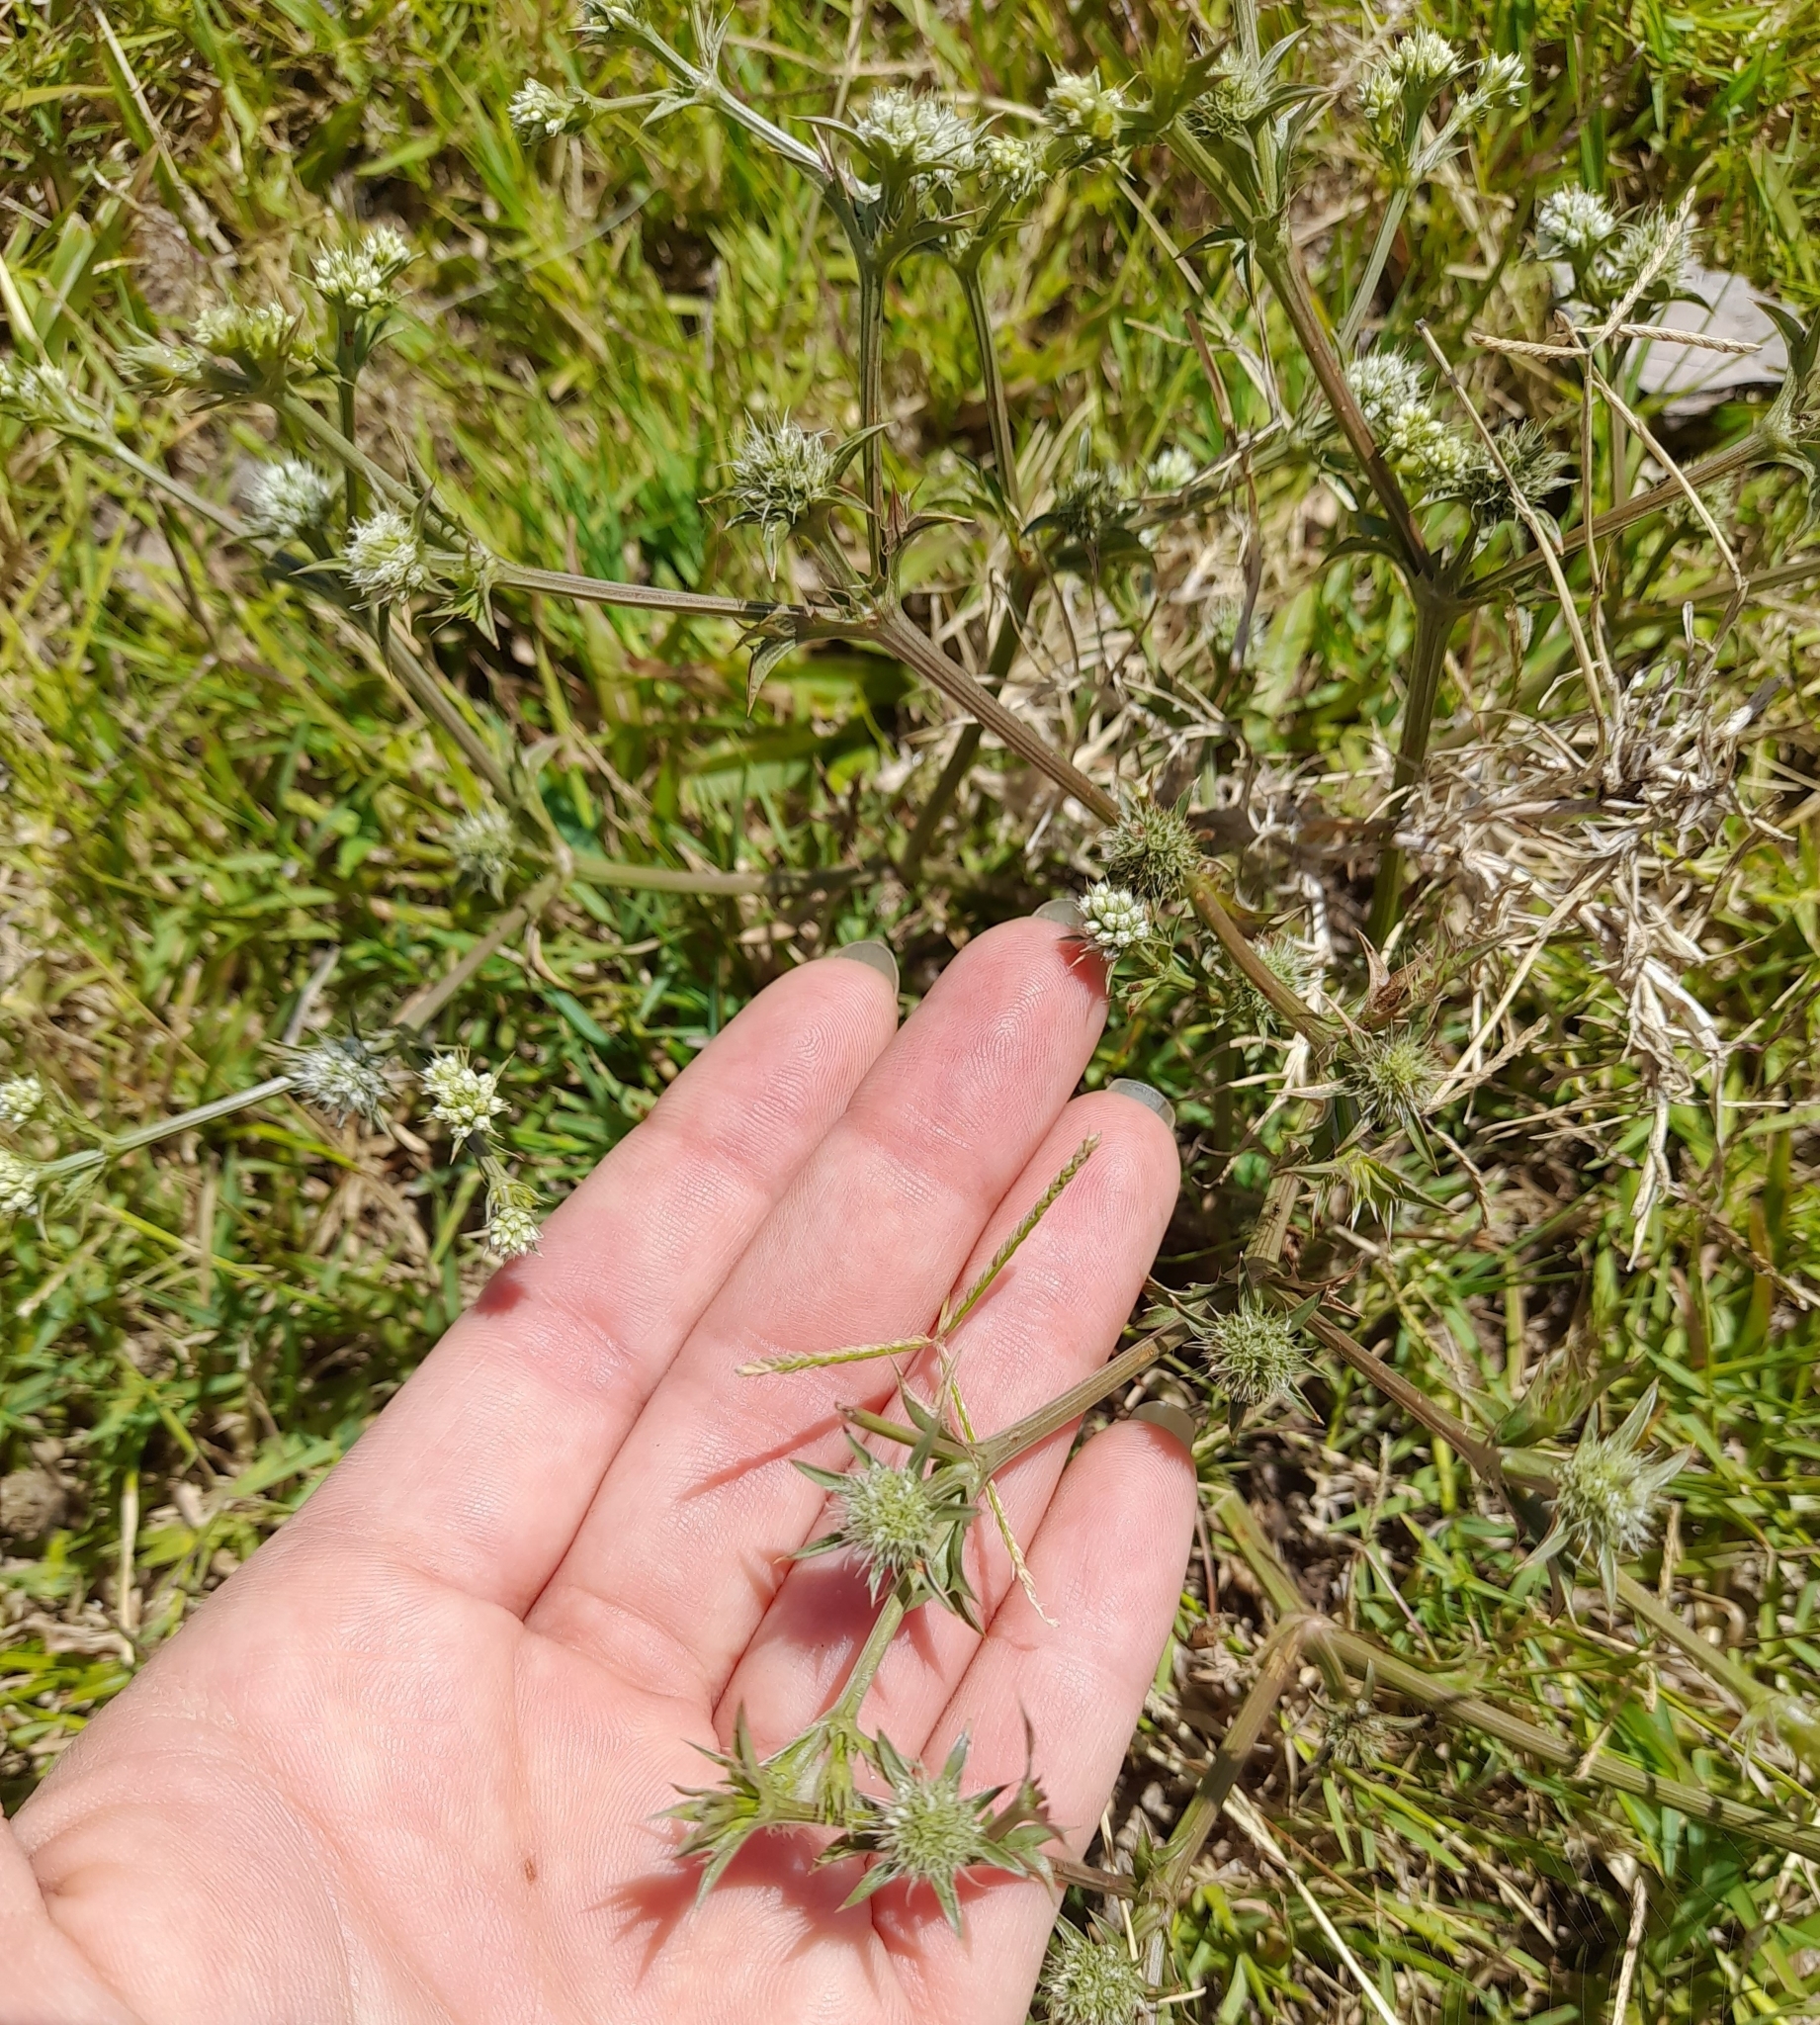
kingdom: Plantae
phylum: Tracheophyta
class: Magnoliopsida
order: Apiales
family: Apiaceae
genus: Eryngium
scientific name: Eryngium nudicaule
